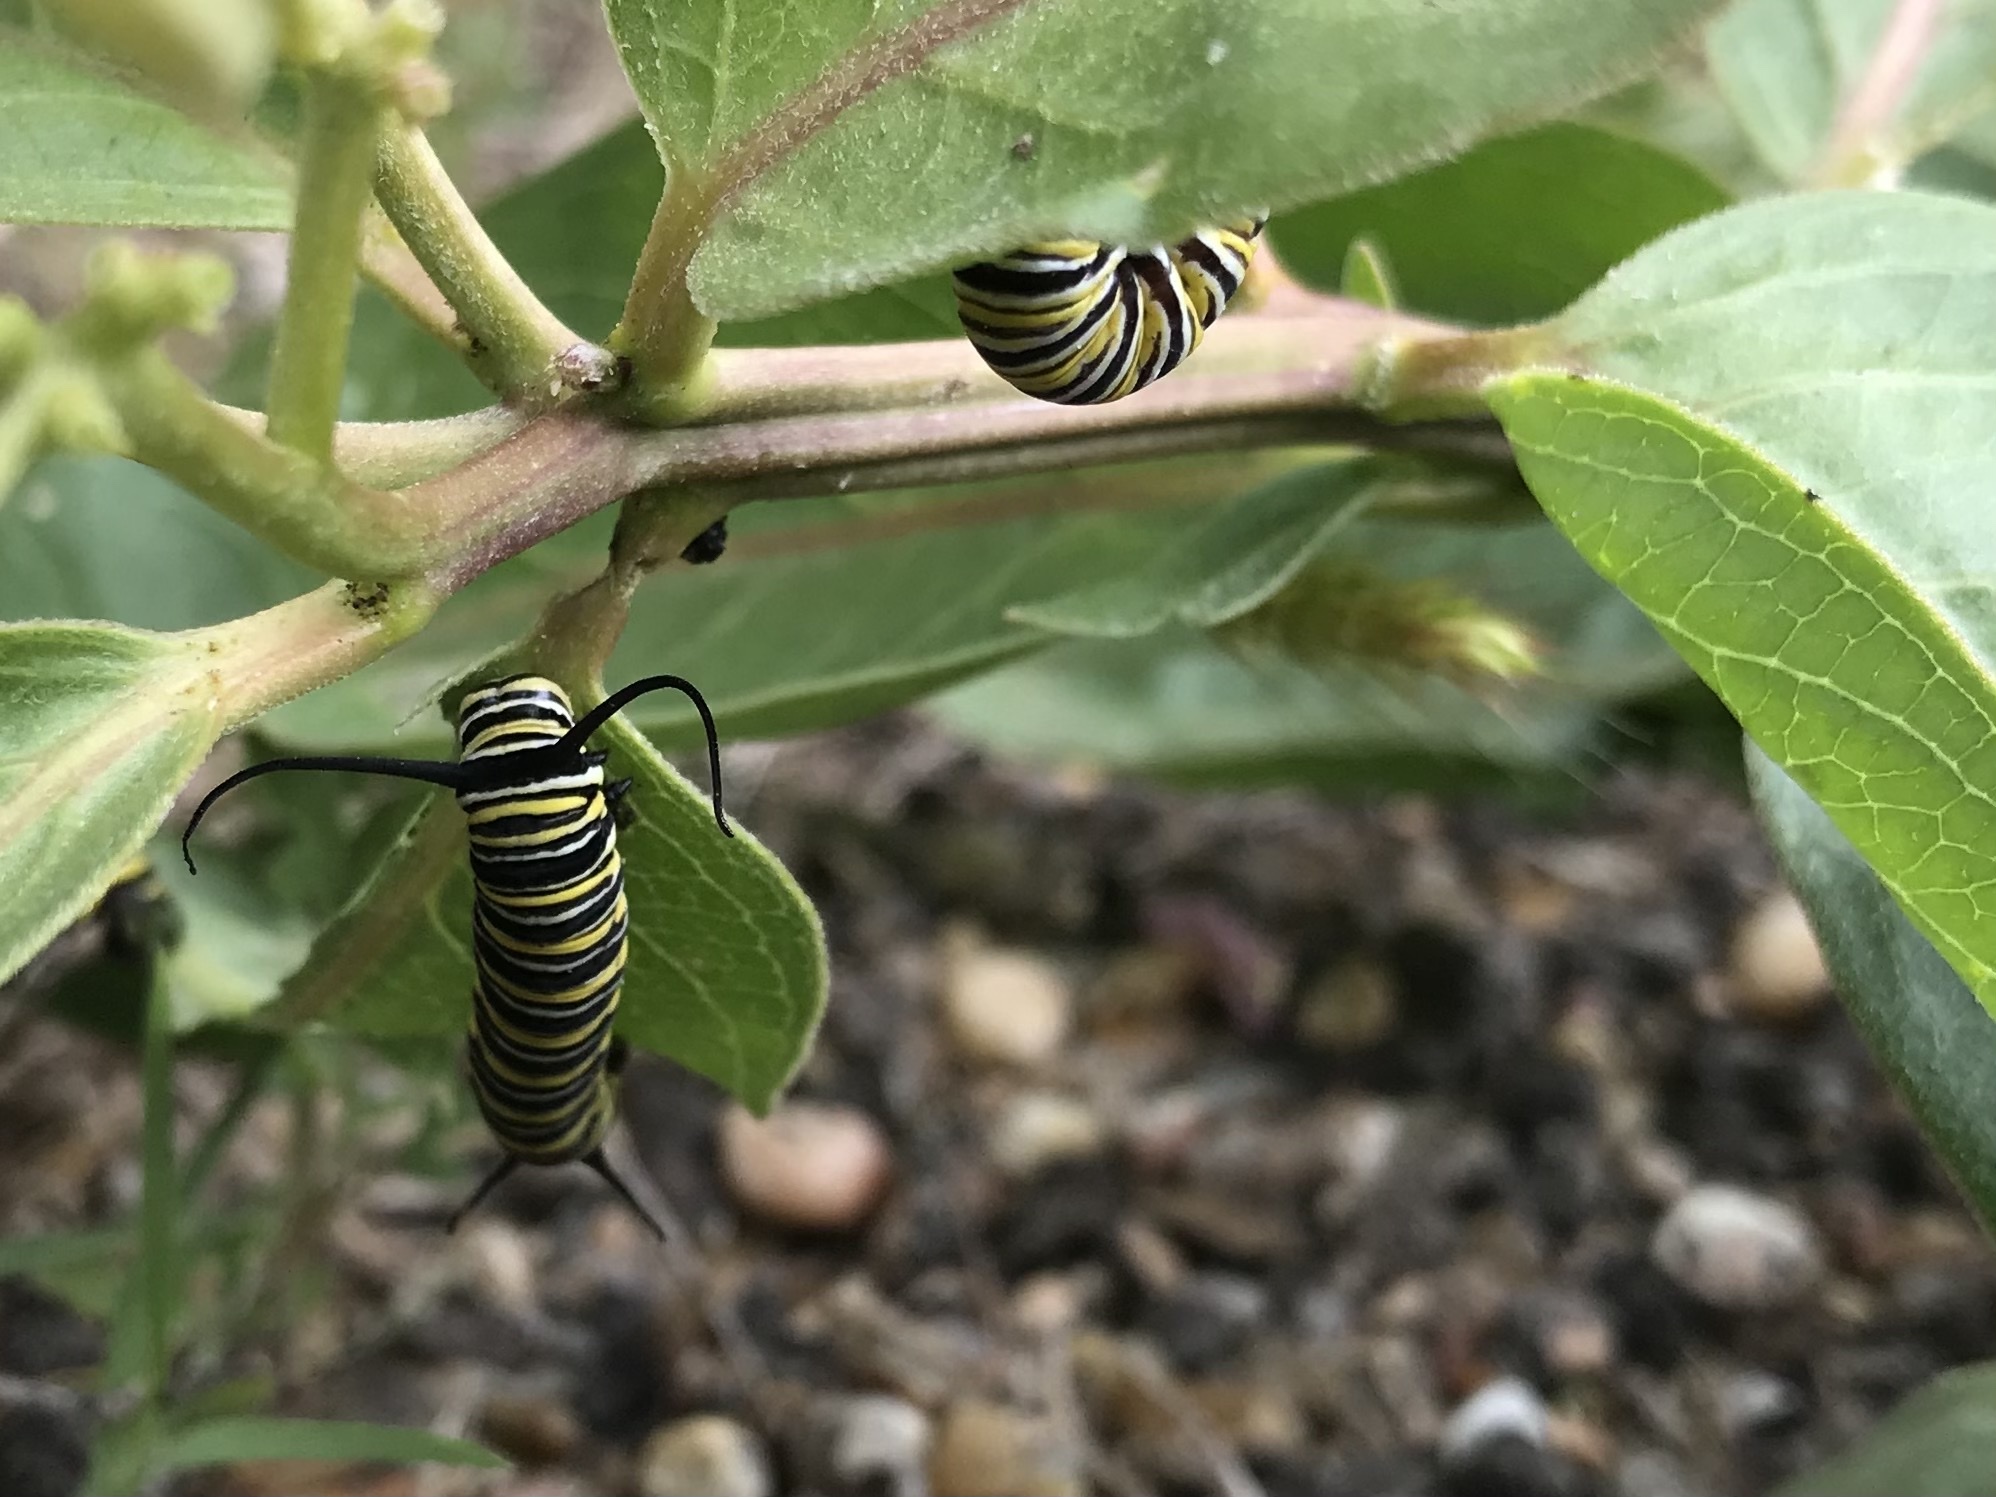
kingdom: Animalia
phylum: Arthropoda
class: Insecta
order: Lepidoptera
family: Nymphalidae
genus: Danaus
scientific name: Danaus plexippus
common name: Monarch
